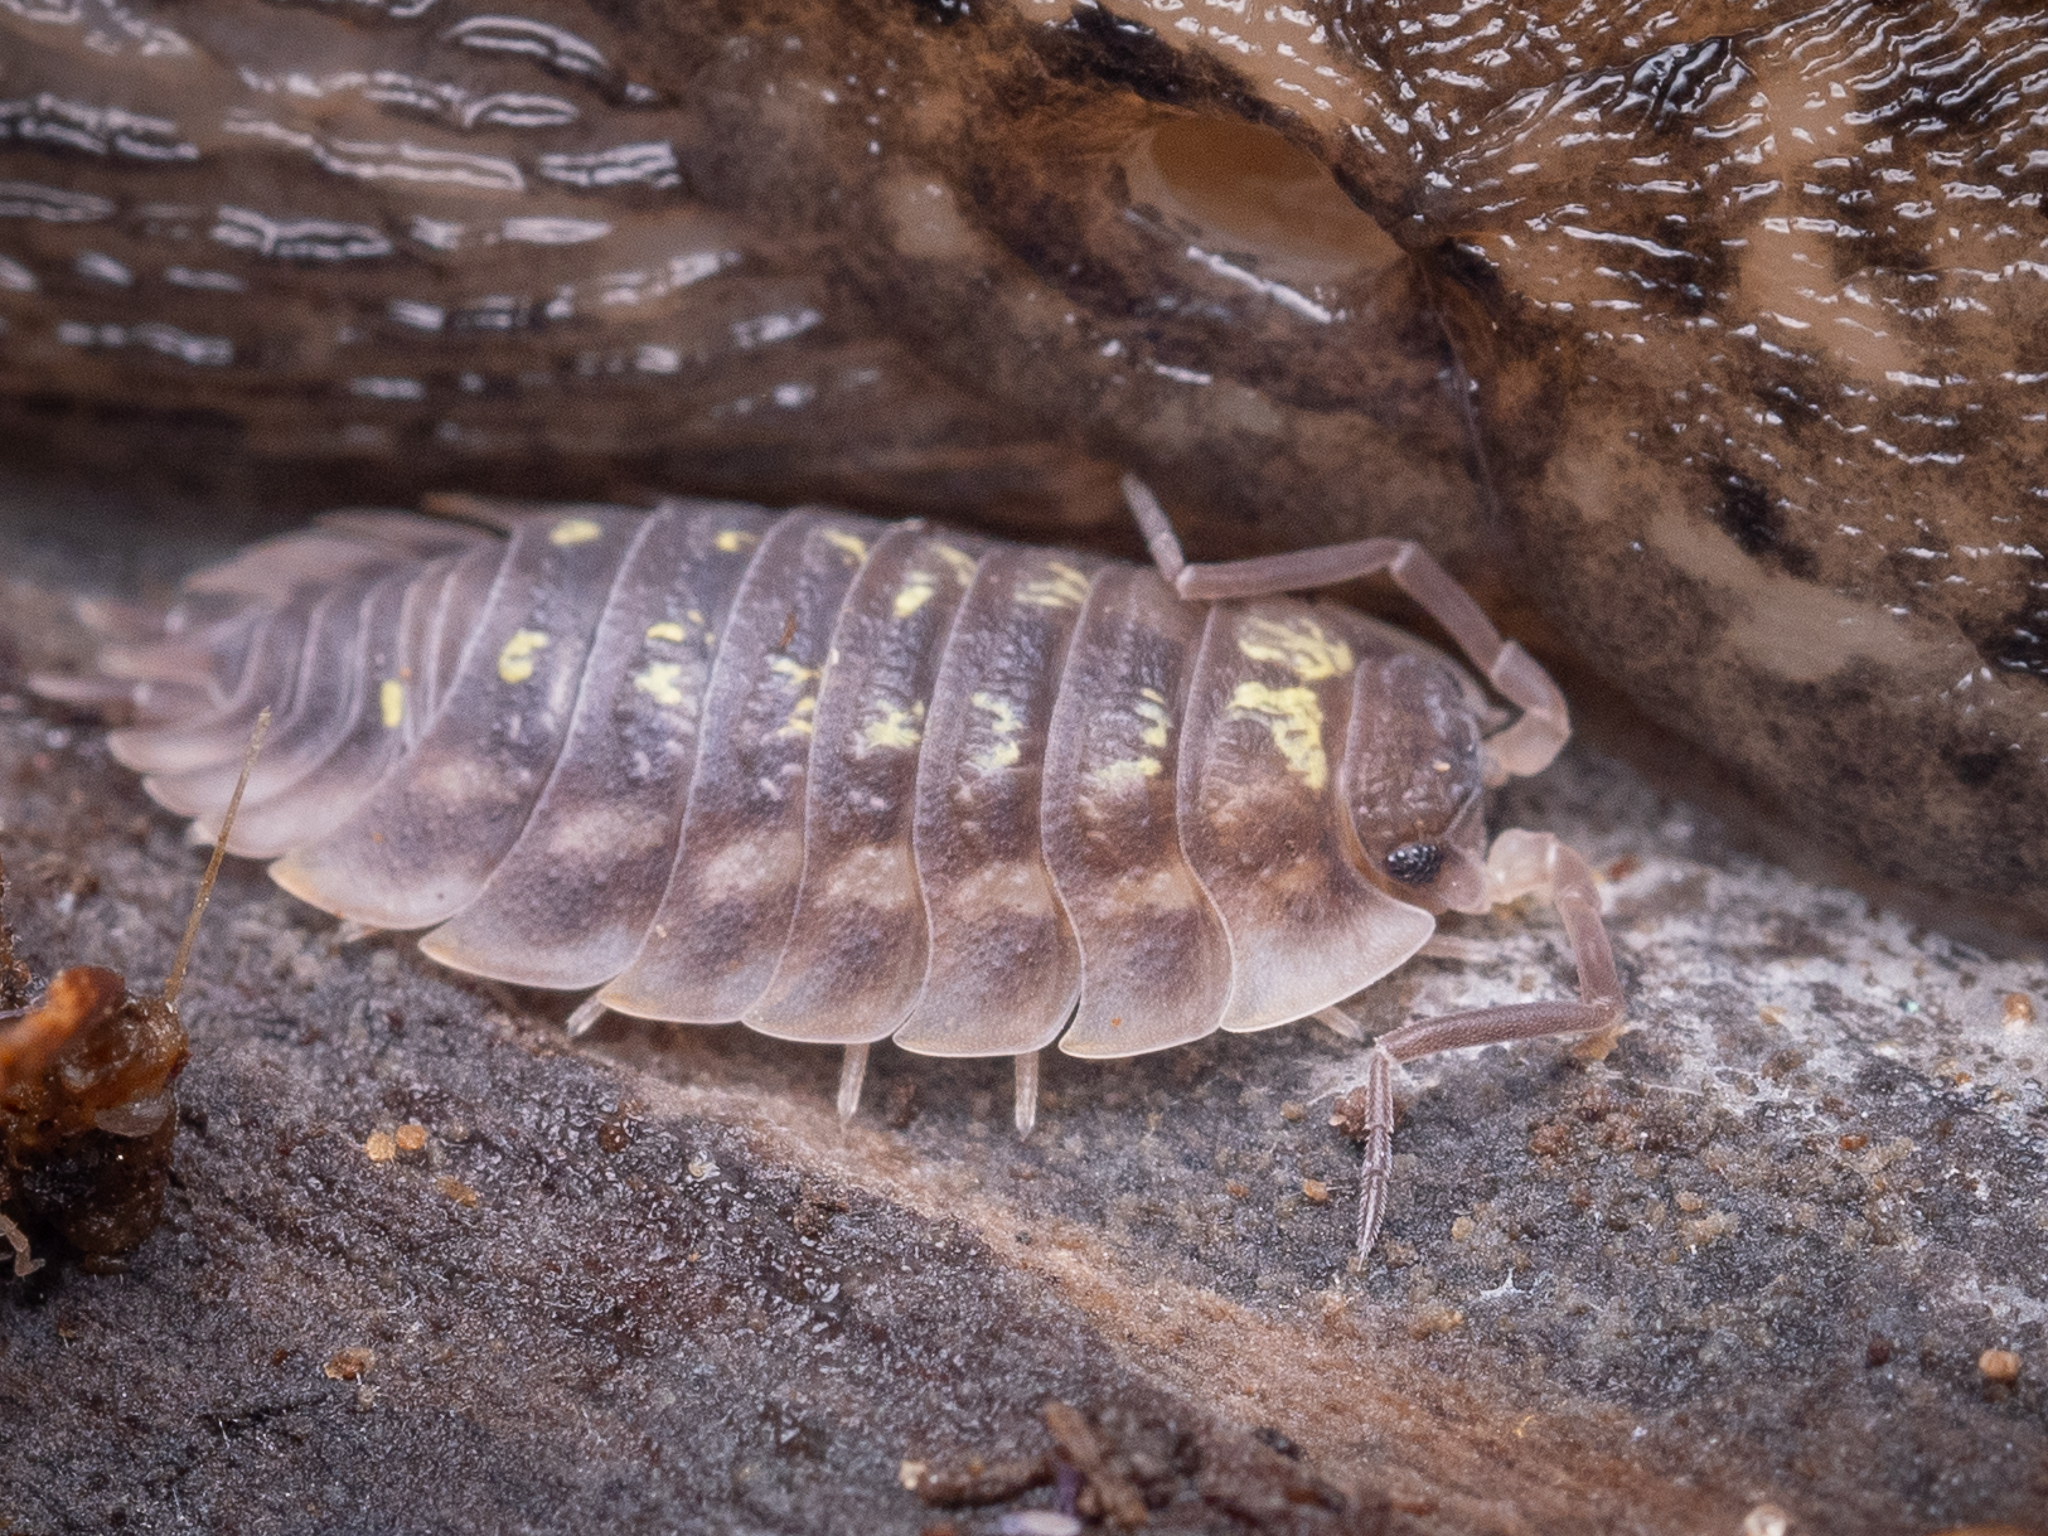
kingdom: Animalia
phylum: Arthropoda
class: Malacostraca
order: Isopoda
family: Oniscidae
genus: Oniscus
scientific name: Oniscus asellus
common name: Common shiny woodlouse
